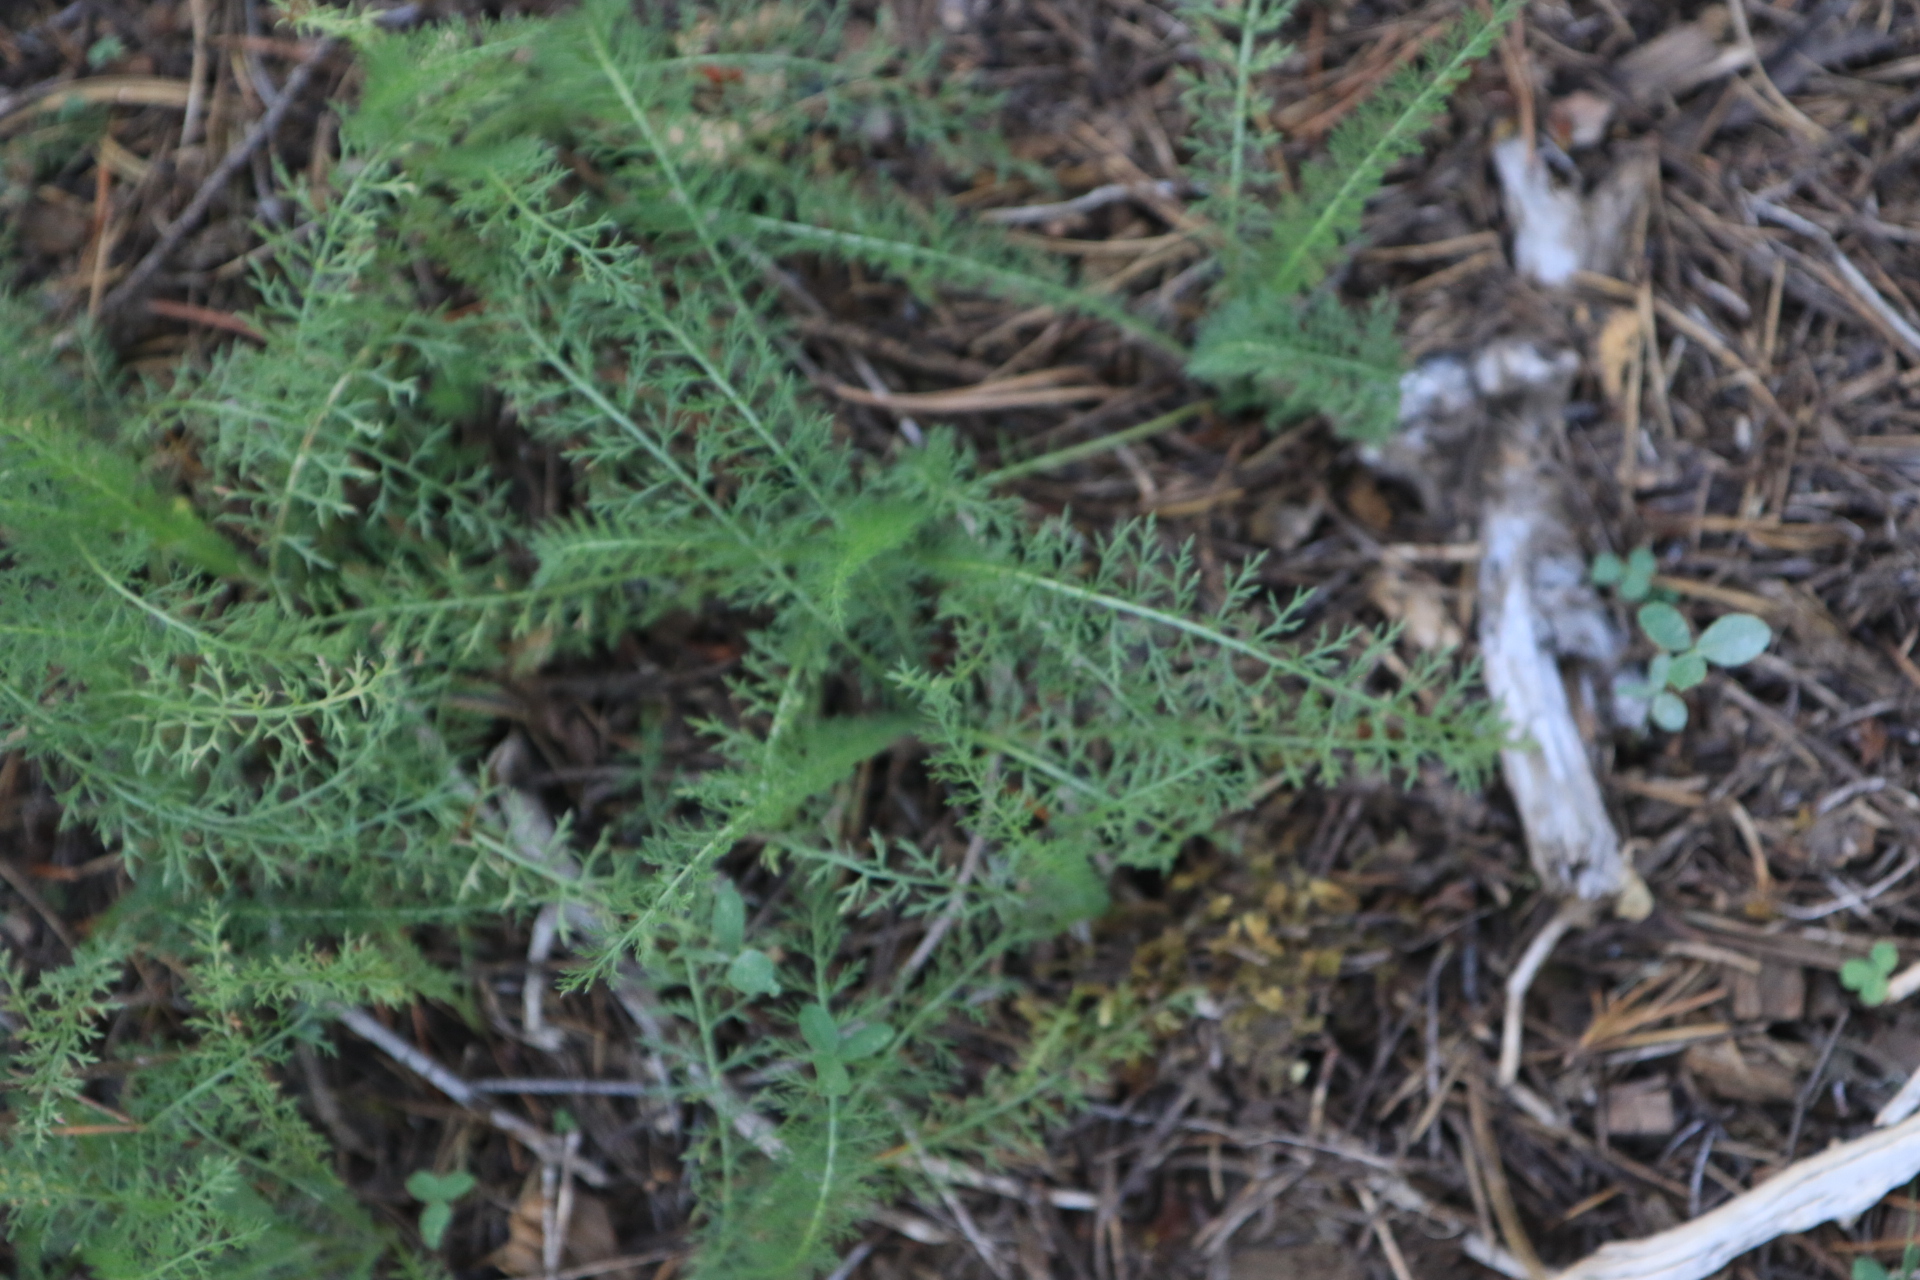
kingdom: Plantae
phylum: Tracheophyta
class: Magnoliopsida
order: Asterales
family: Asteraceae
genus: Achillea
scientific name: Achillea millefolium
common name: Yarrow
